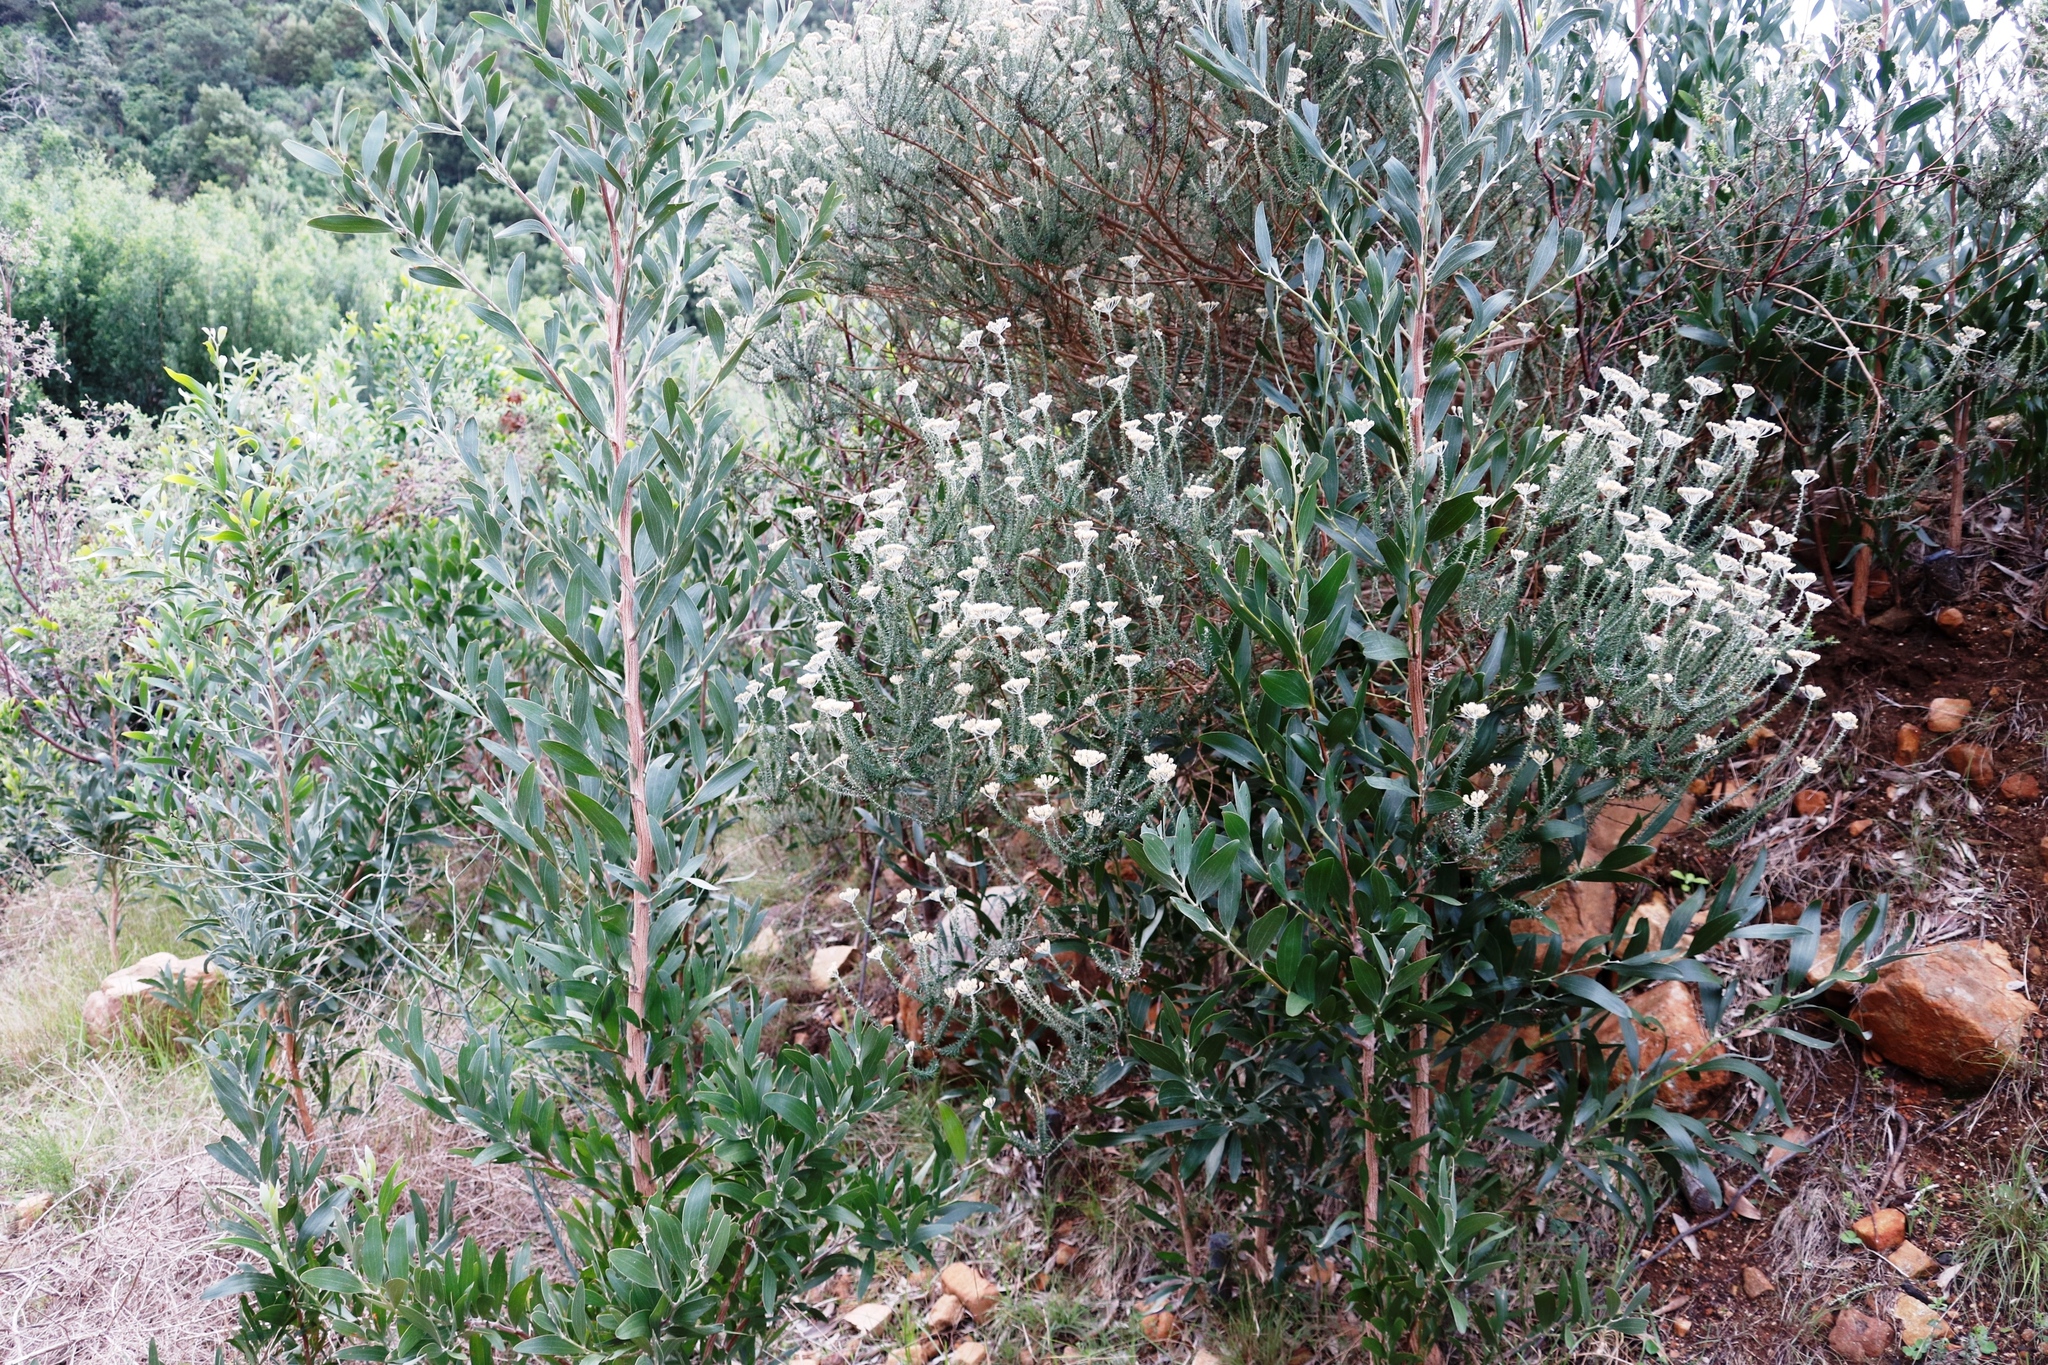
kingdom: Plantae
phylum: Tracheophyta
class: Magnoliopsida
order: Asterales
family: Asteraceae
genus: Metalasia
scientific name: Metalasia densa
